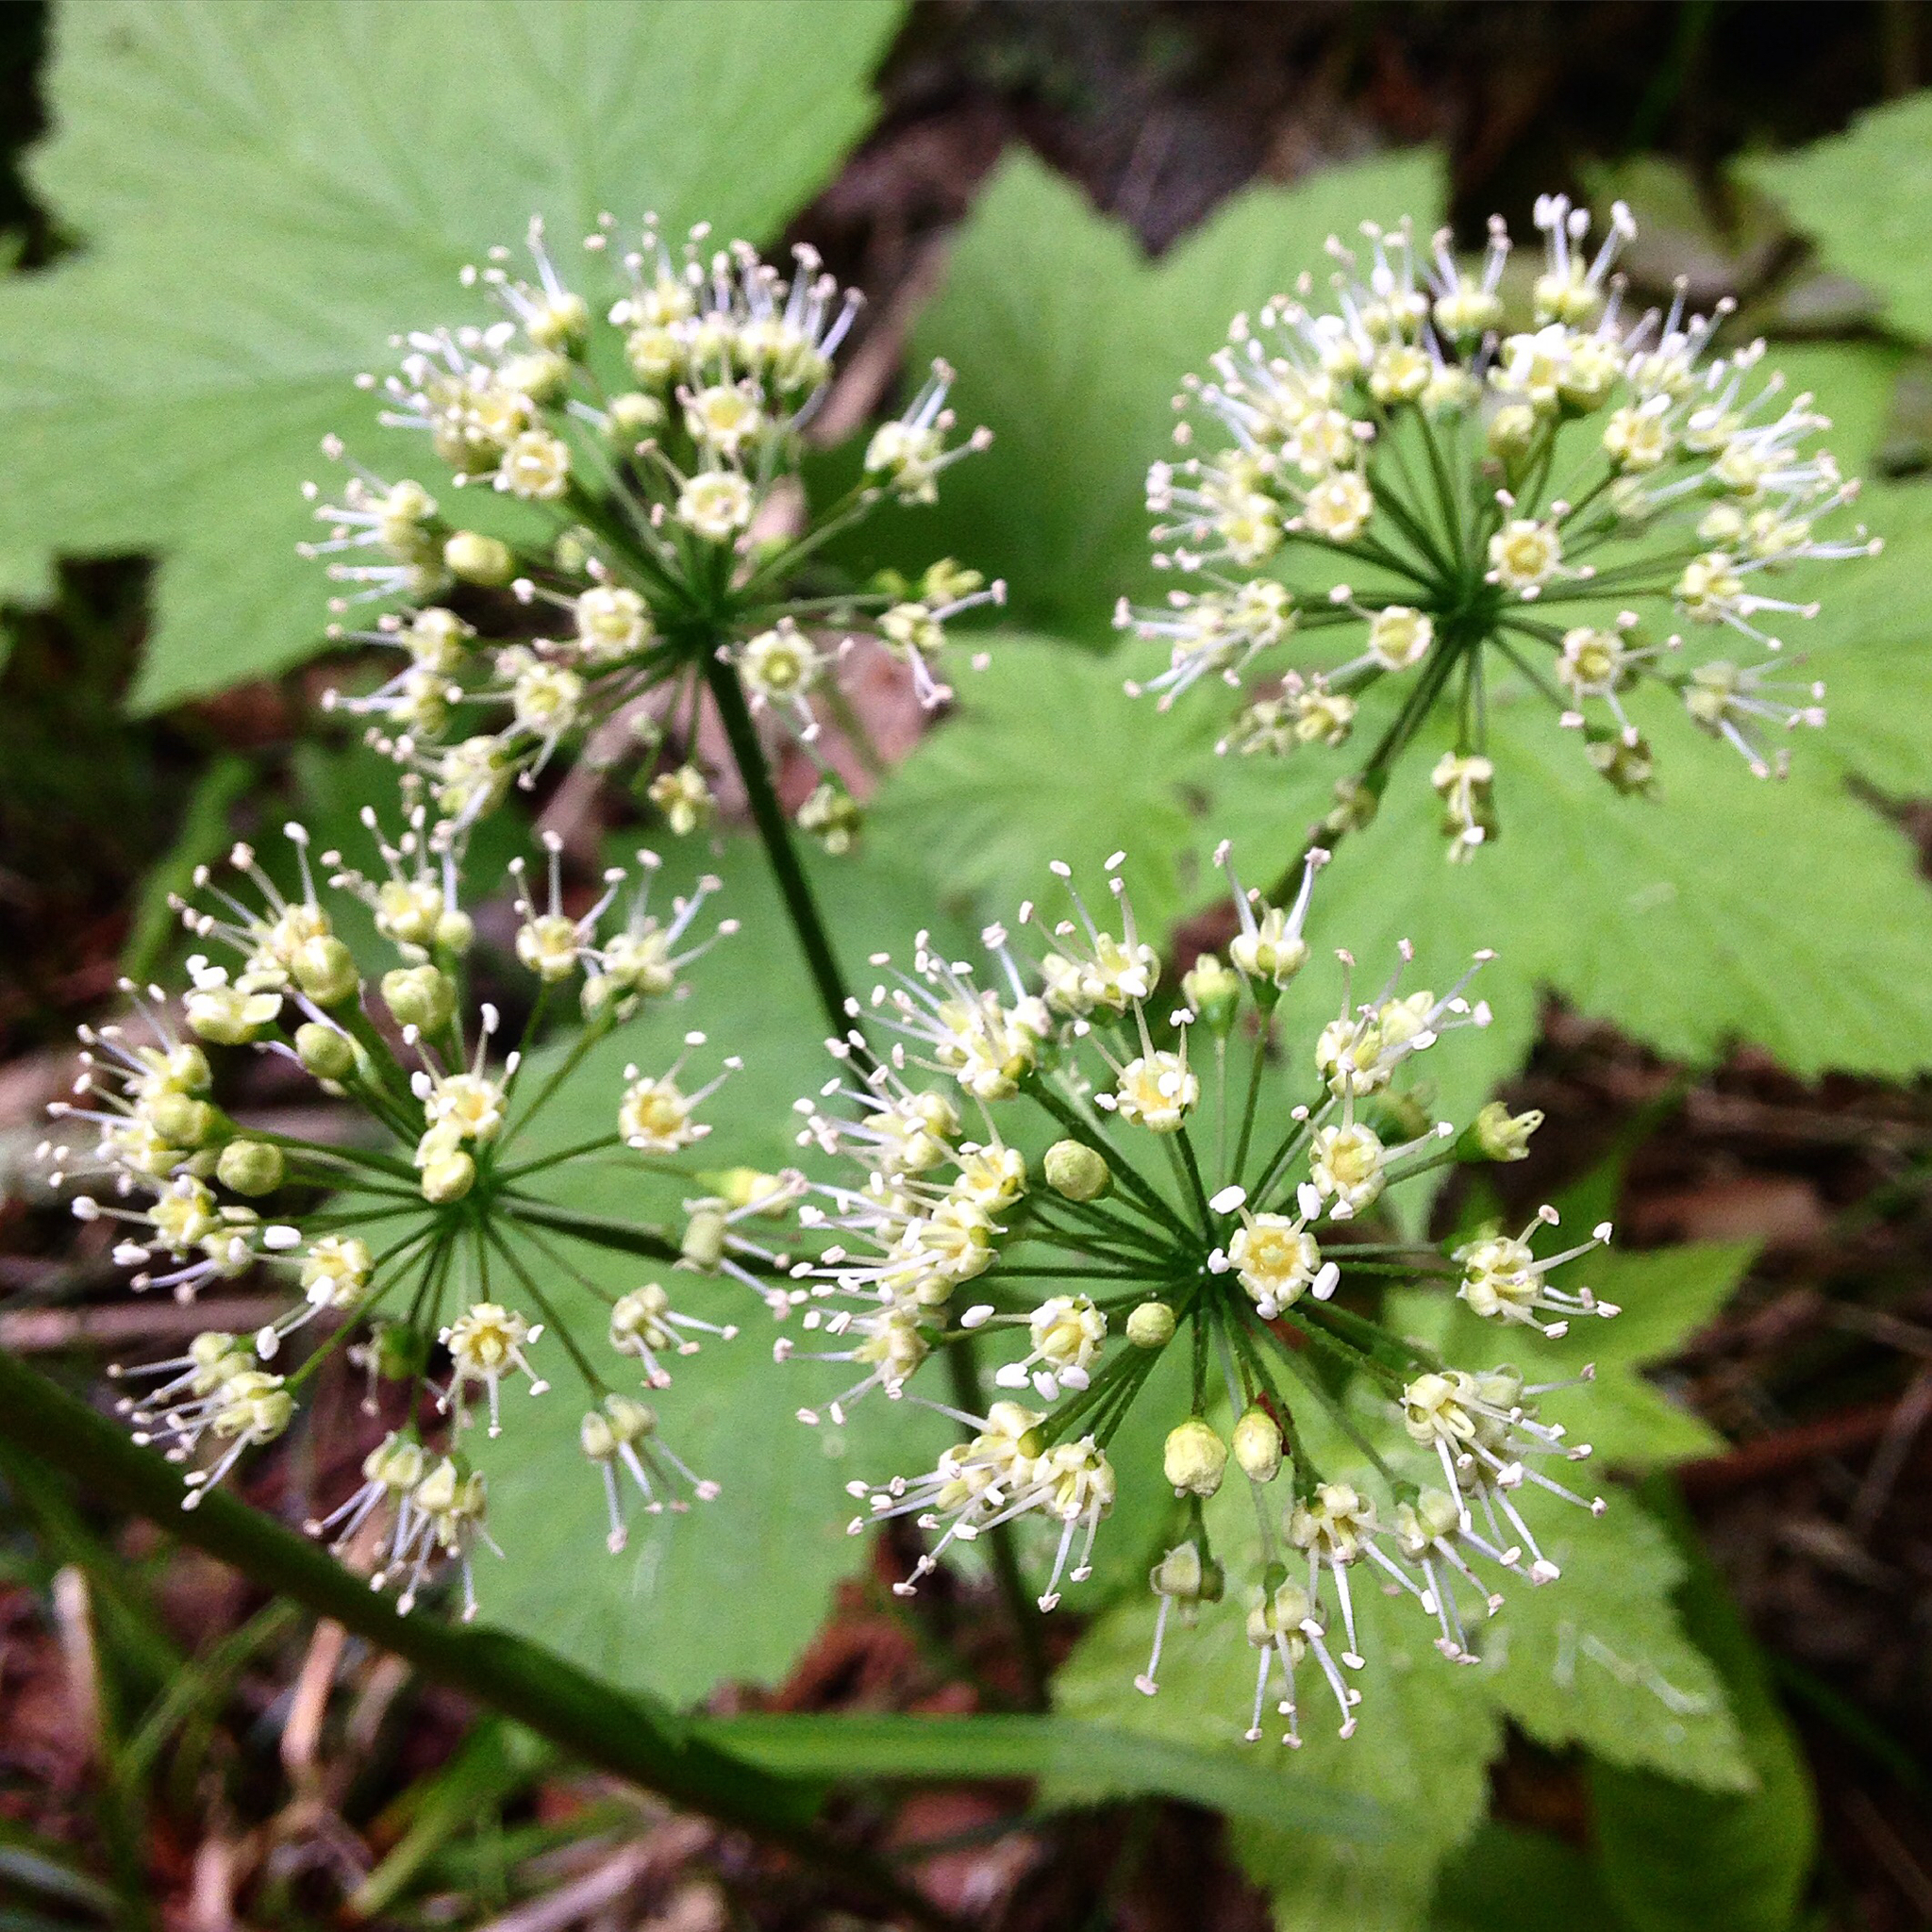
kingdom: Plantae
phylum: Tracheophyta
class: Magnoliopsida
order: Apiales
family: Araliaceae
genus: Aralia
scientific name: Aralia nudicaulis
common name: Wild sarsaparilla
